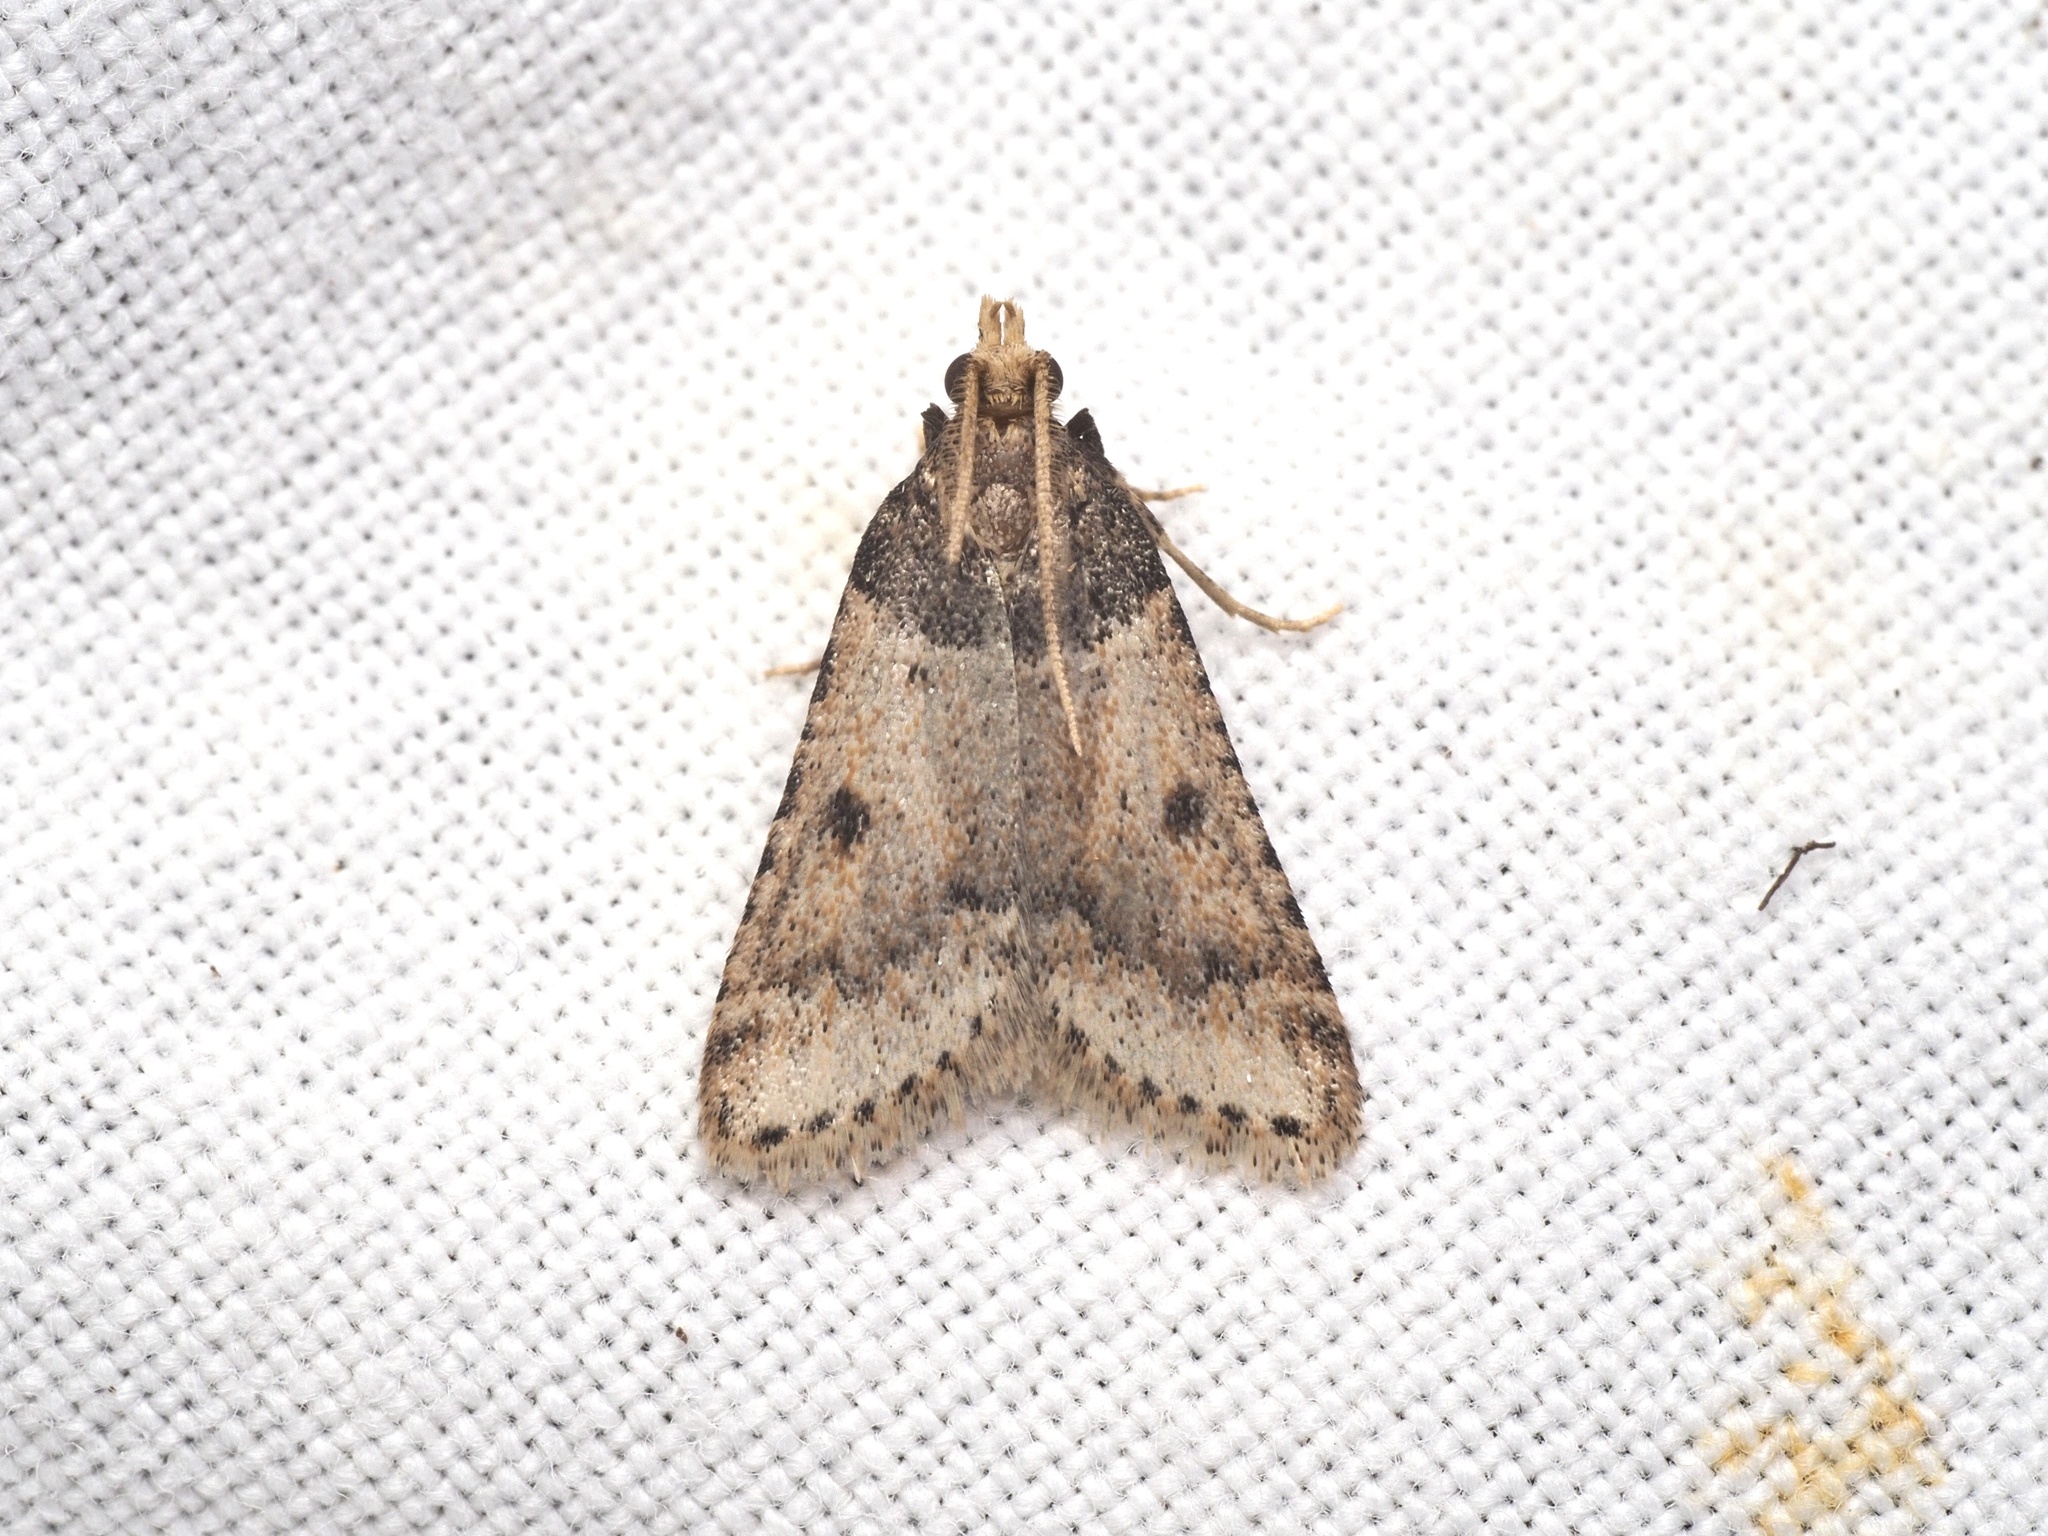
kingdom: Animalia
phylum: Arthropoda
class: Insecta
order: Lepidoptera
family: Pyralidae
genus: Philotis
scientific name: Philotis basalis
